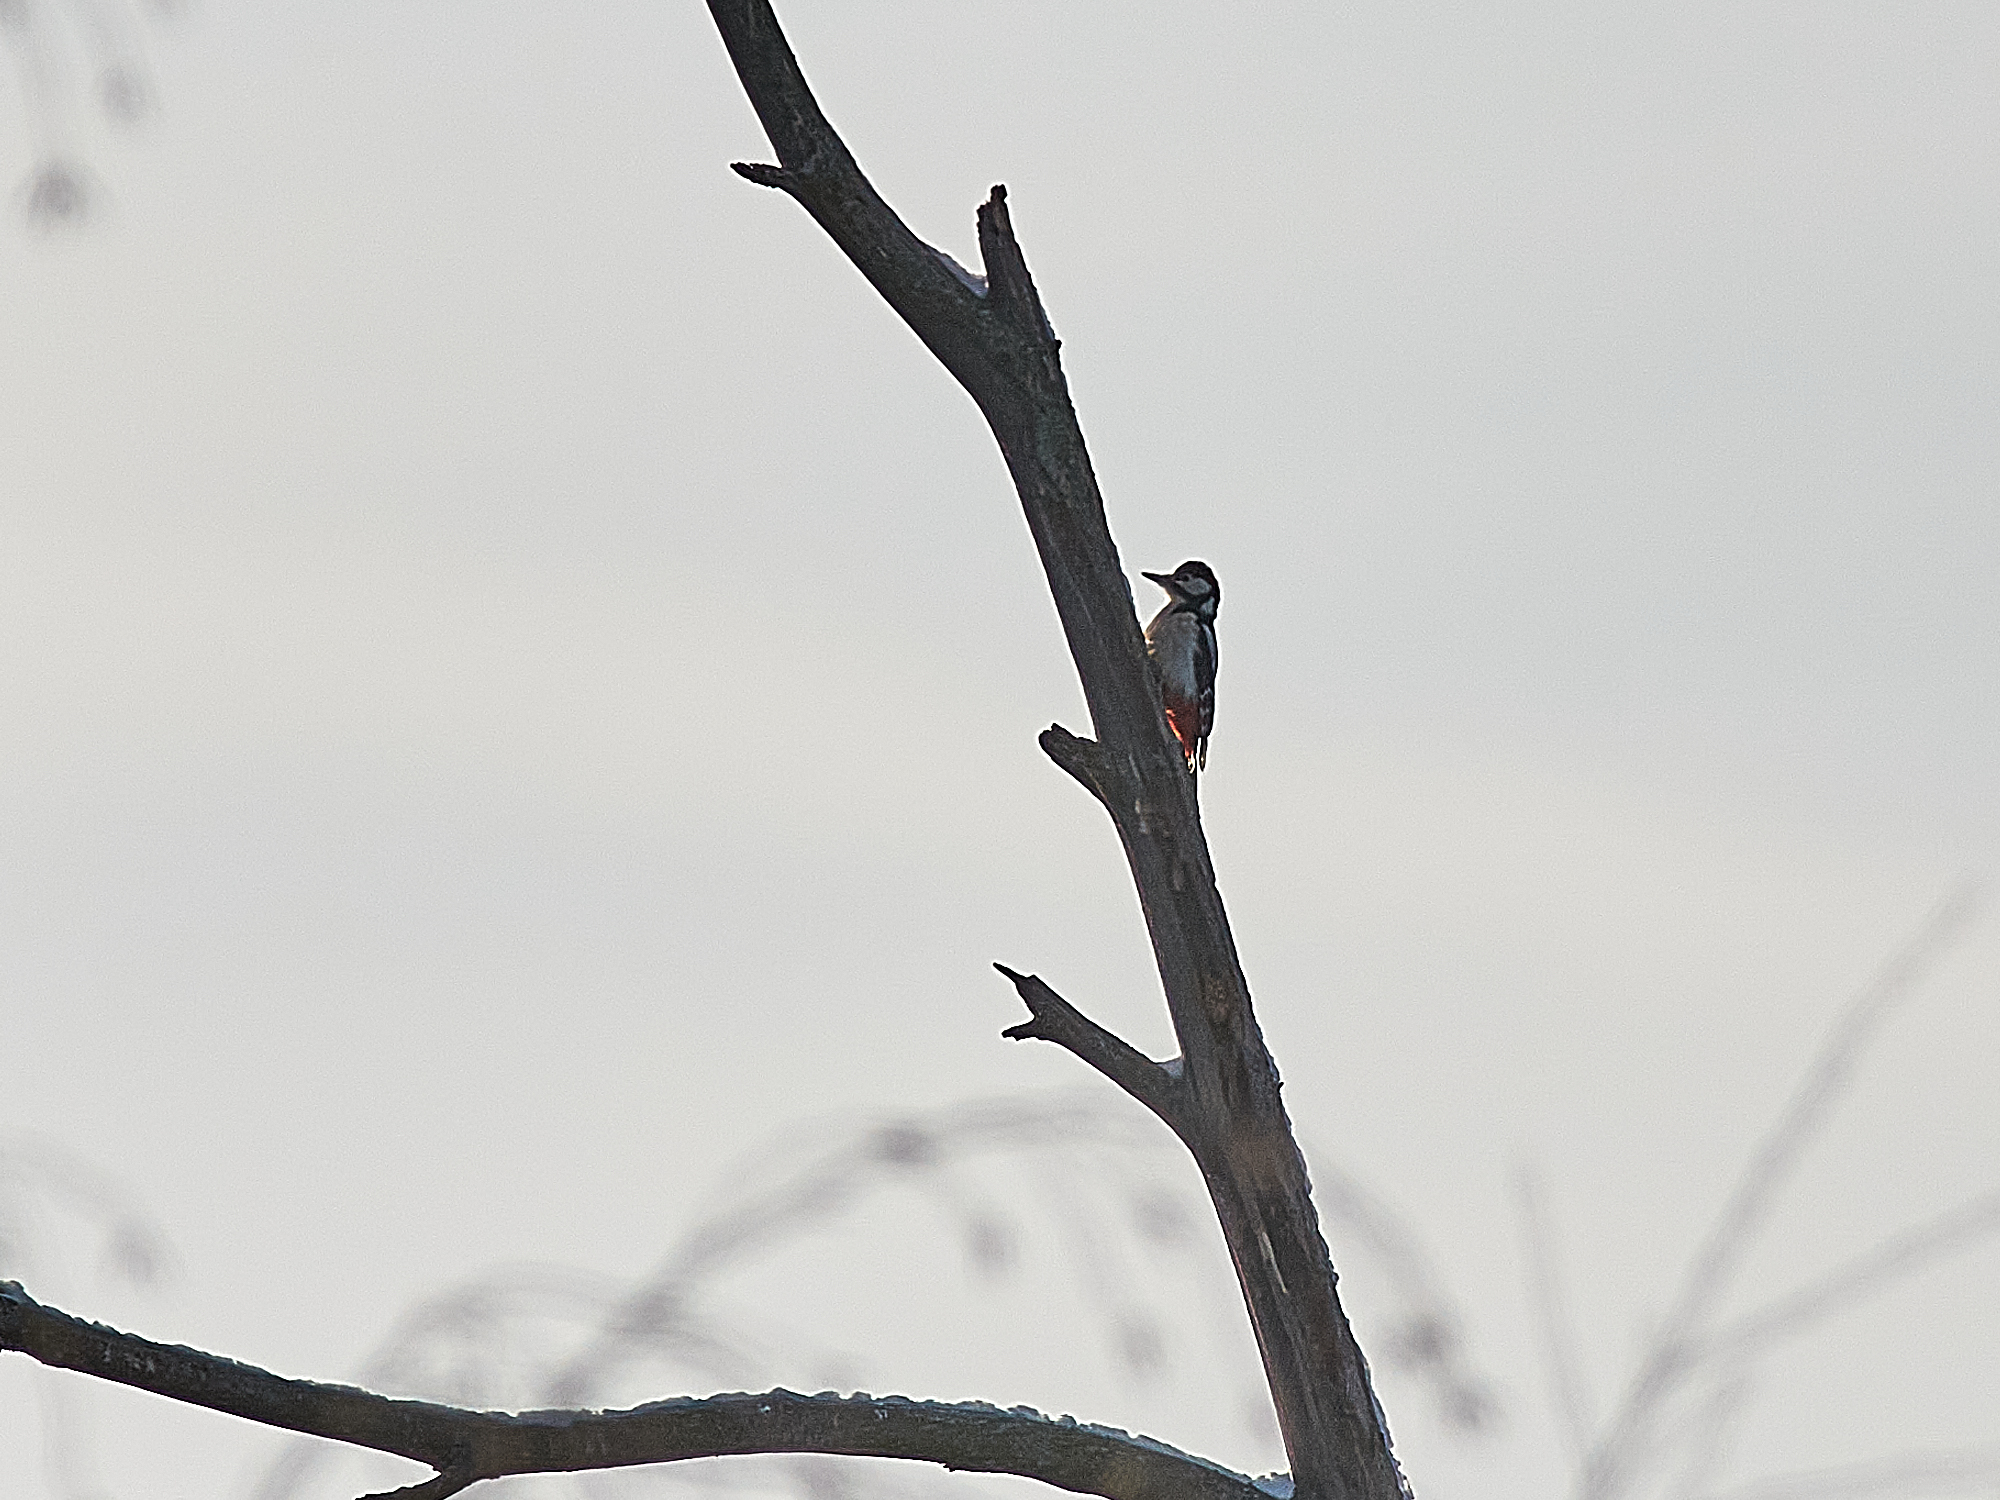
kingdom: Animalia
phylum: Chordata
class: Aves
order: Piciformes
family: Picidae
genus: Dendrocopos
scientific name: Dendrocopos major
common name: Great spotted woodpecker
